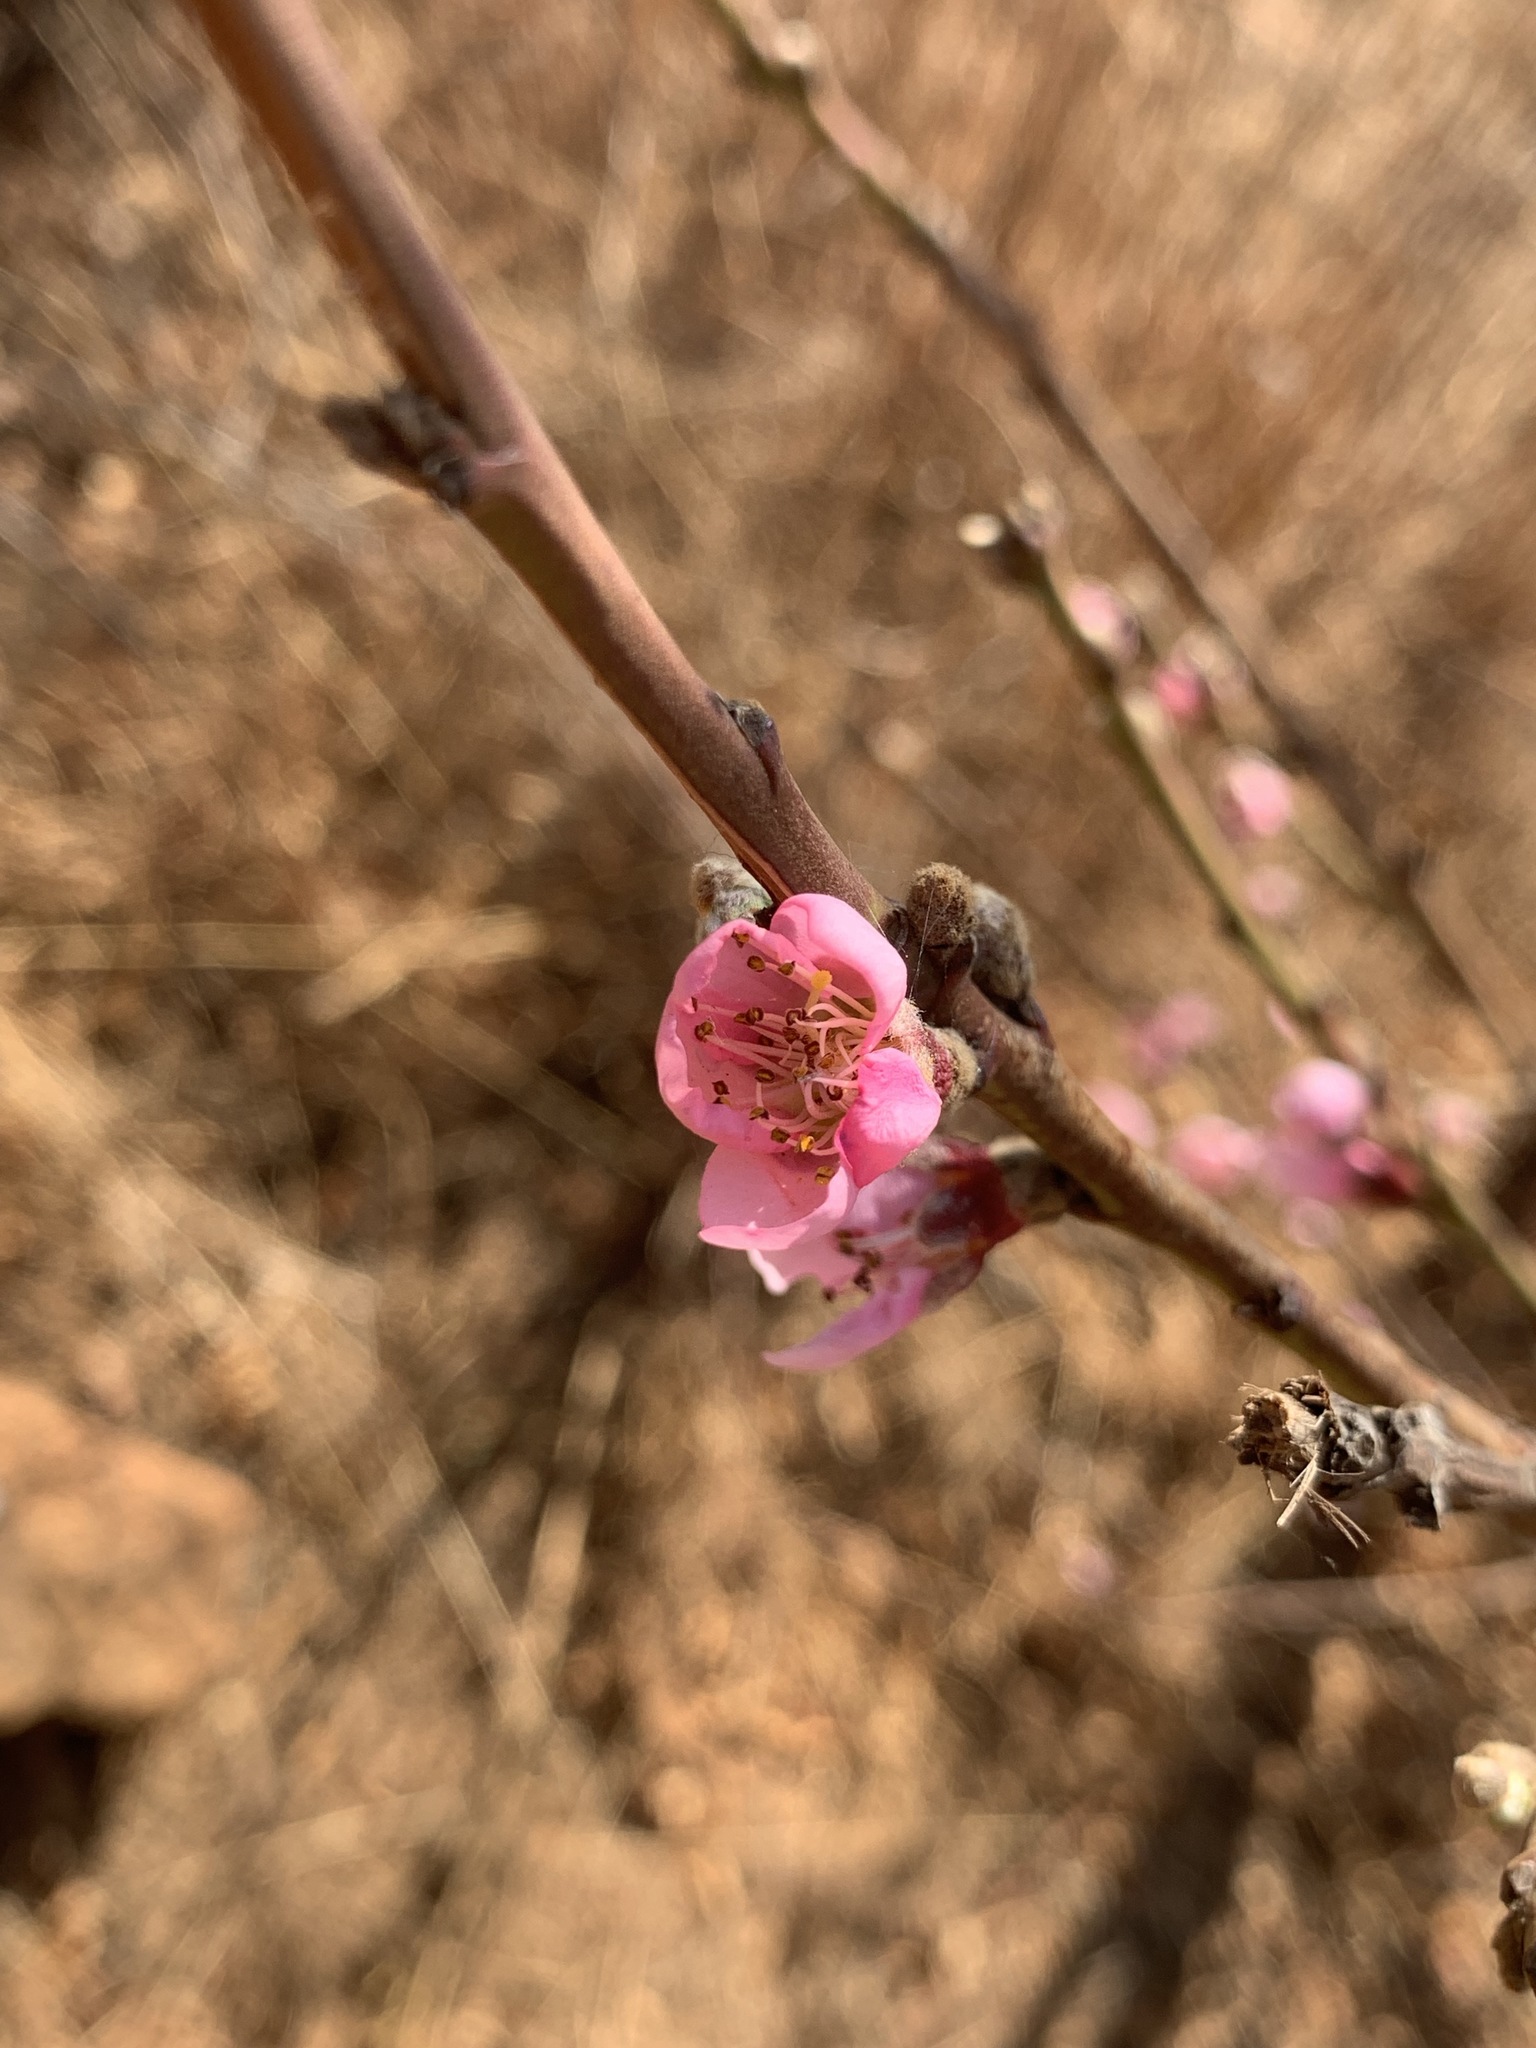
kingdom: Plantae
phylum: Tracheophyta
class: Magnoliopsida
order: Rosales
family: Rosaceae
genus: Prunus
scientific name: Prunus persica
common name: Peach
